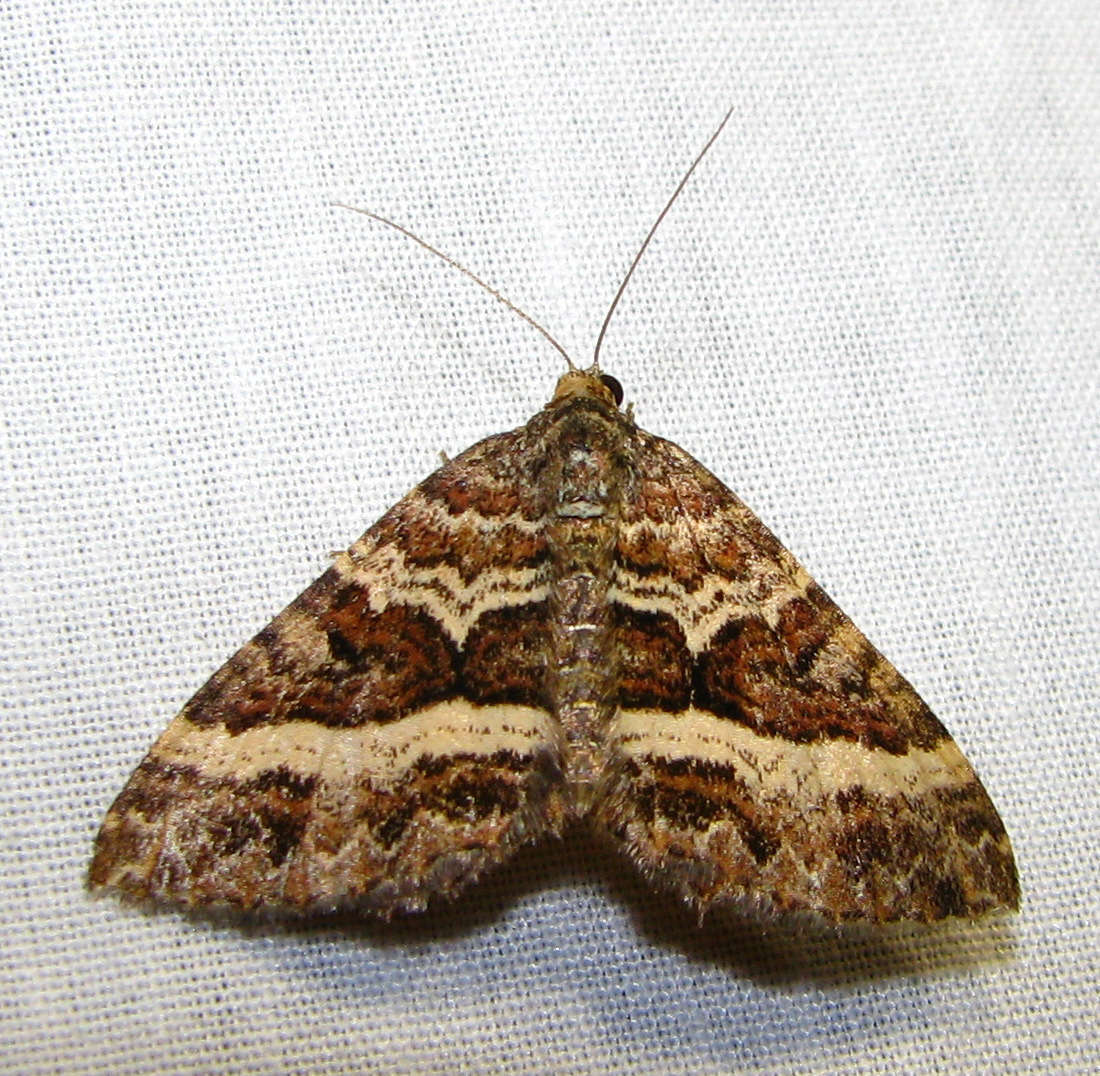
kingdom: Animalia
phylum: Arthropoda
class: Insecta
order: Lepidoptera
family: Geometridae
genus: Chrysolarentia
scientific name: Chrysolarentia vicissata
